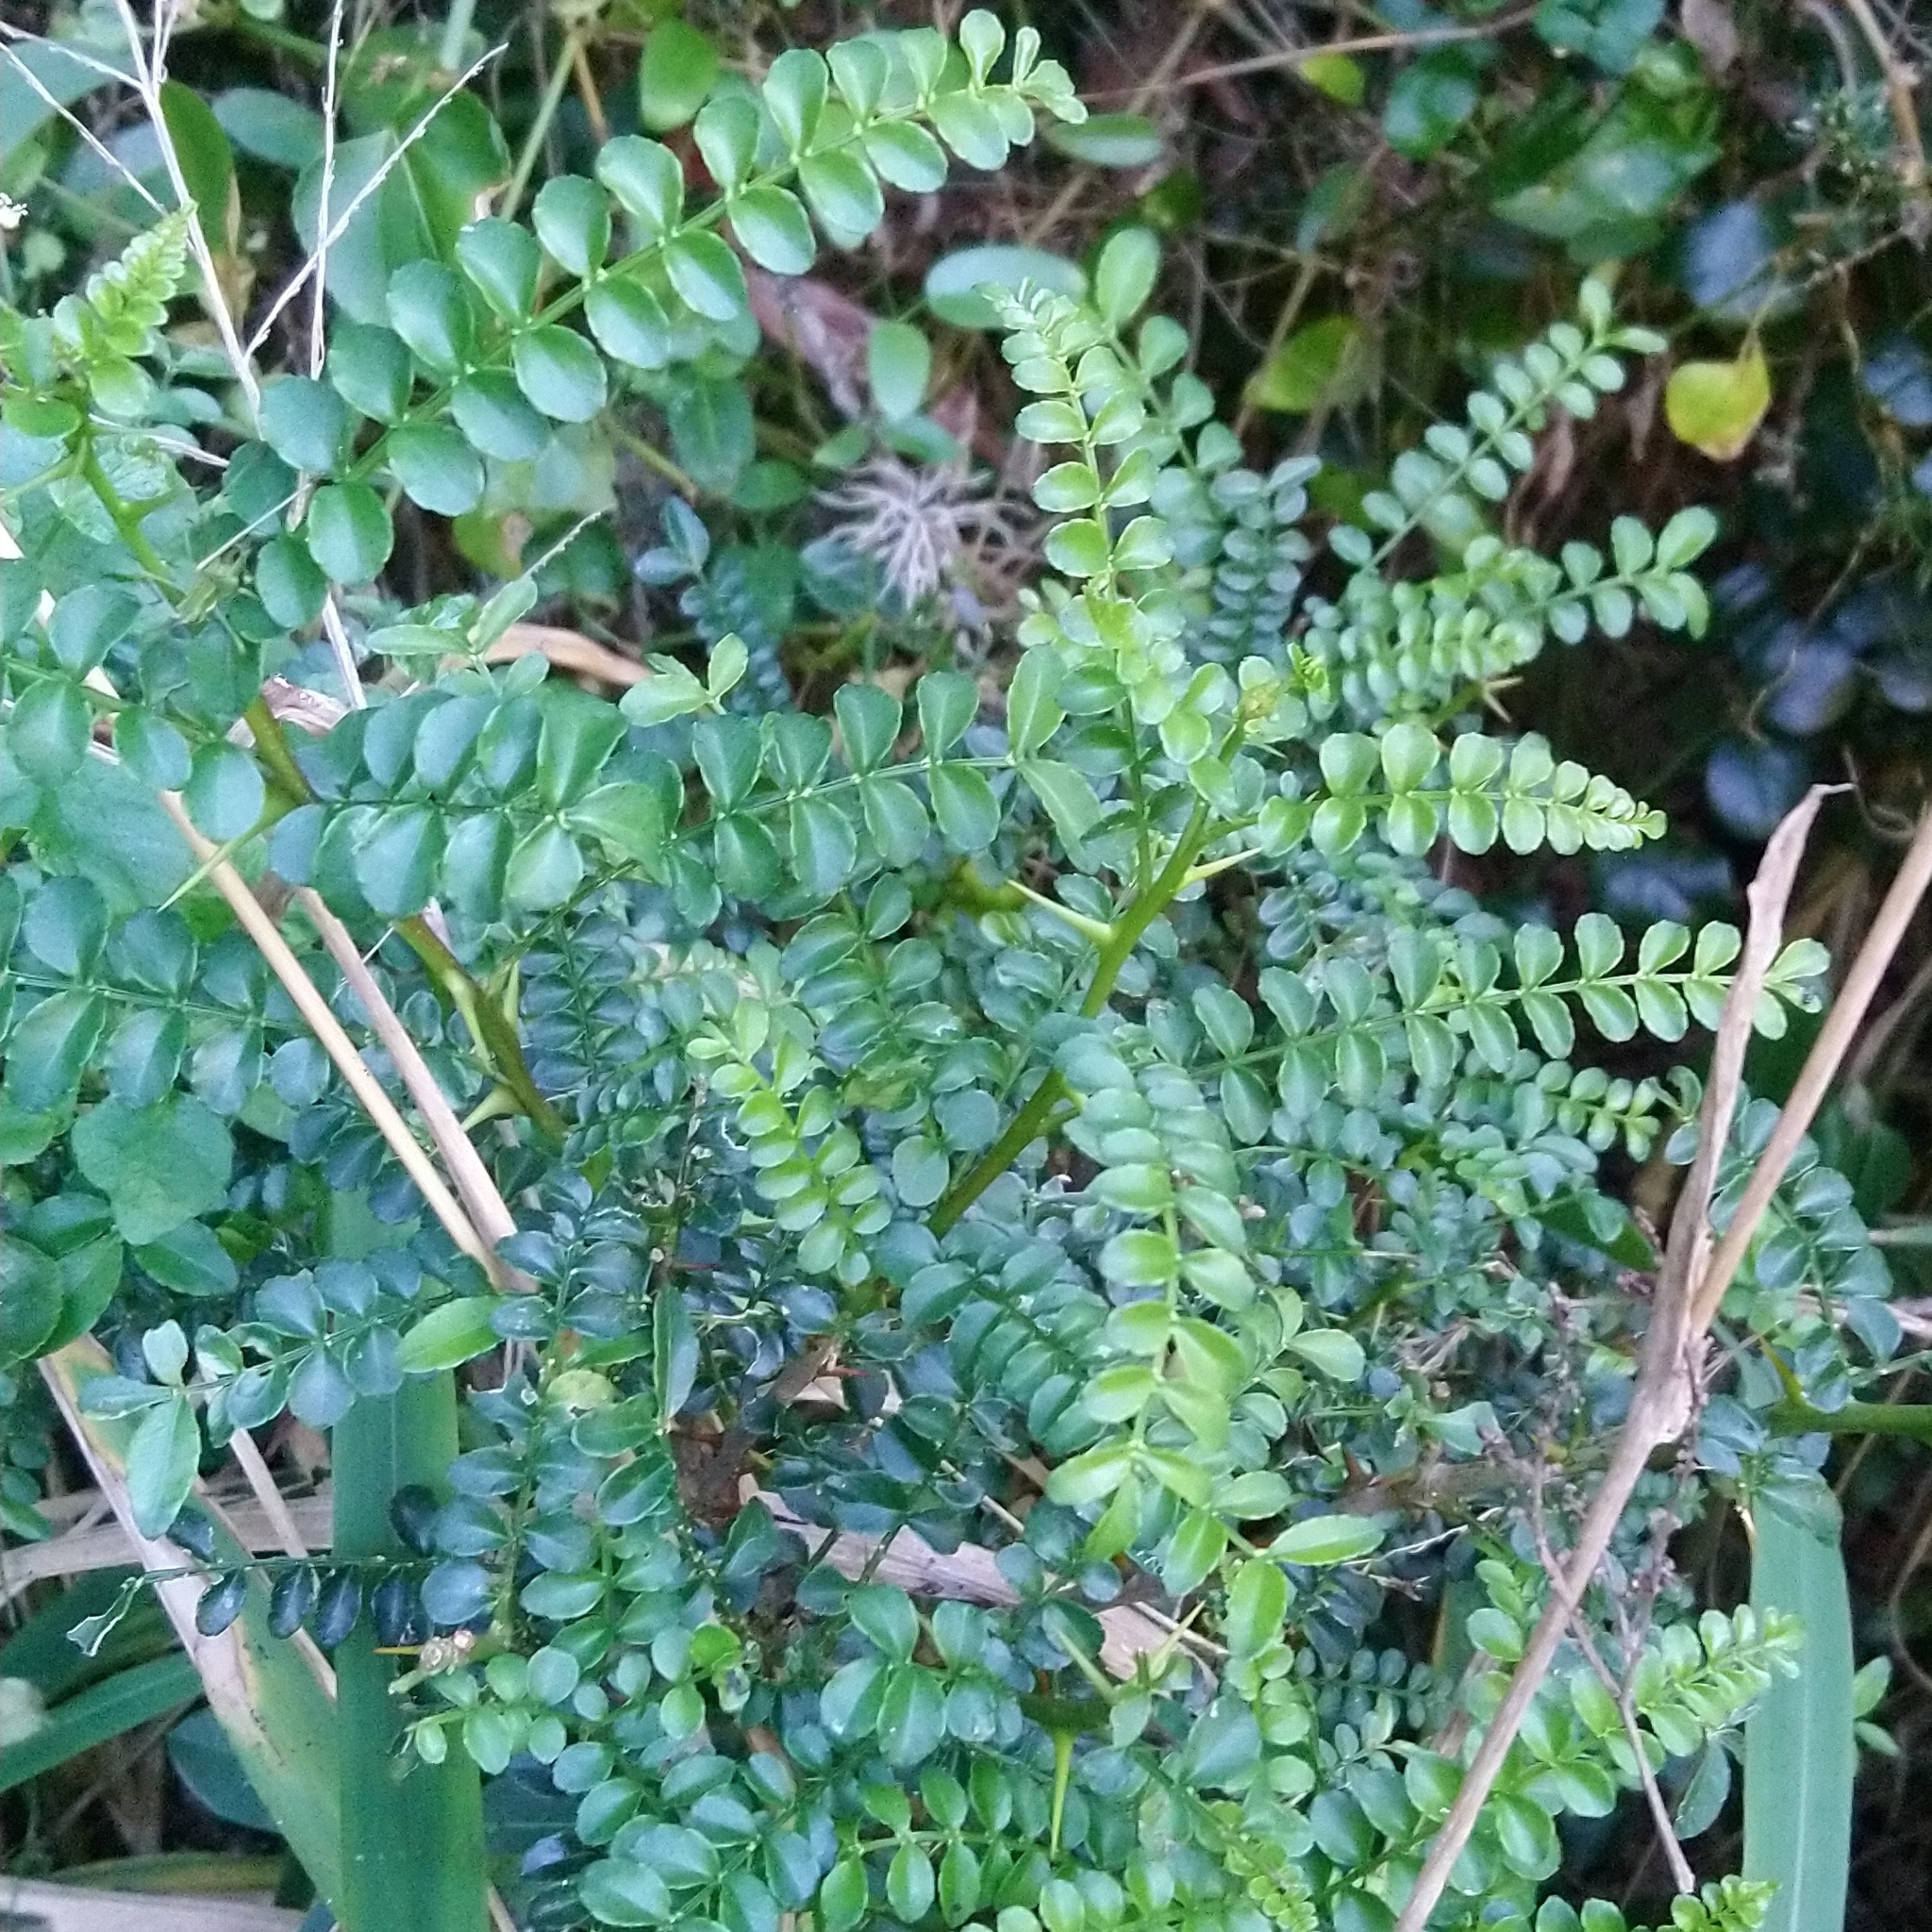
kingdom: Plantae
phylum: Tracheophyta
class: Magnoliopsida
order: Sapindales
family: Rutaceae
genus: Zanthoxylum
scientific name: Zanthoxylum capense
